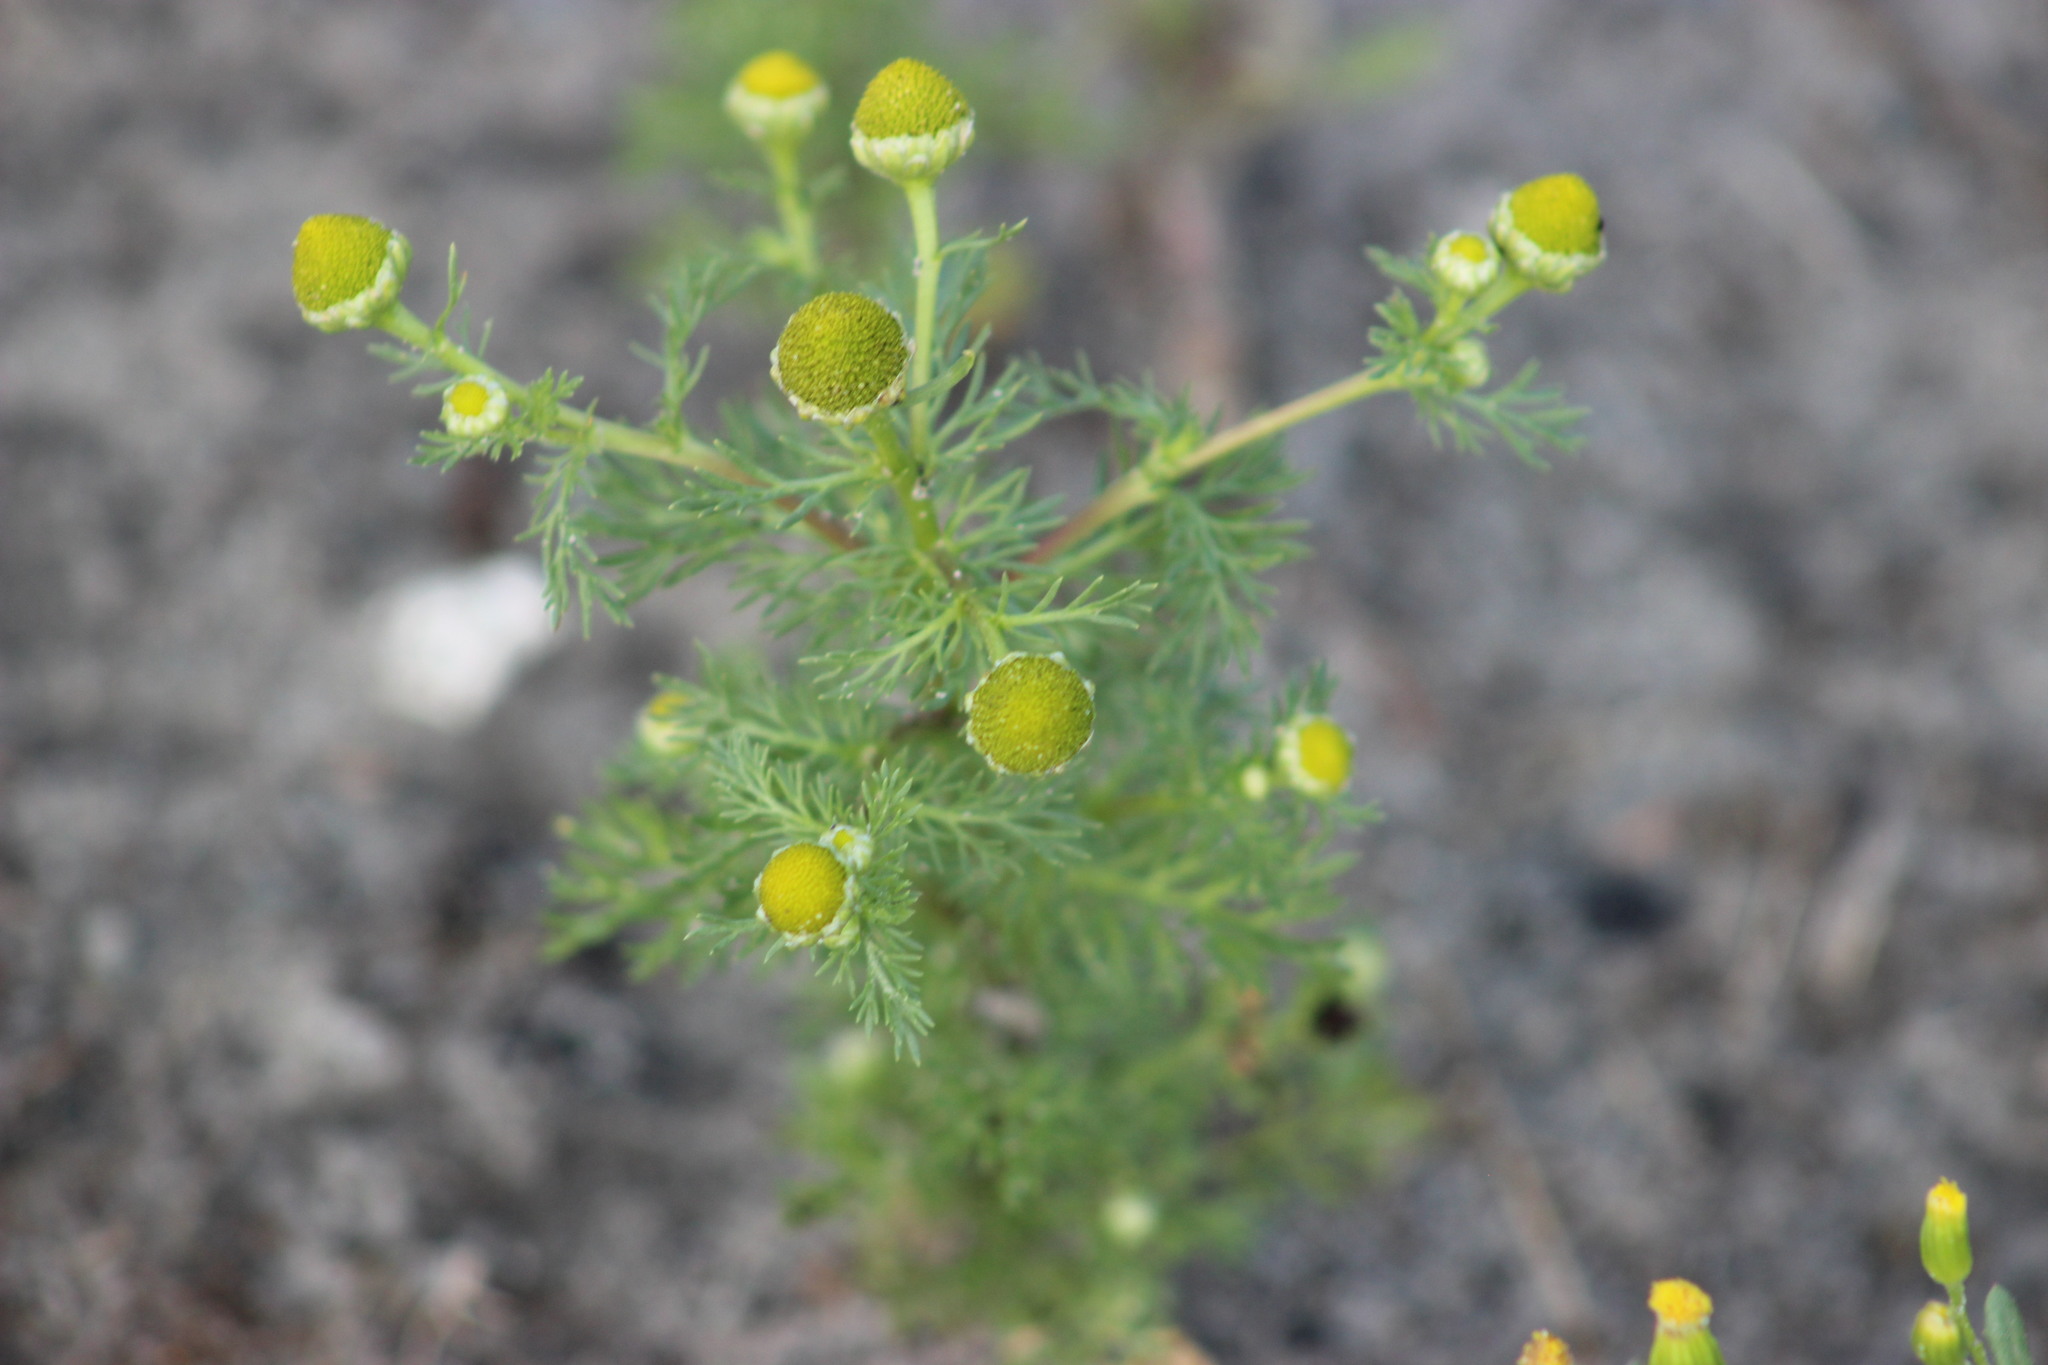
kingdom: Plantae
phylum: Tracheophyta
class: Magnoliopsida
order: Asterales
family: Asteraceae
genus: Matricaria
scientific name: Matricaria discoidea
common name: Disc mayweed
